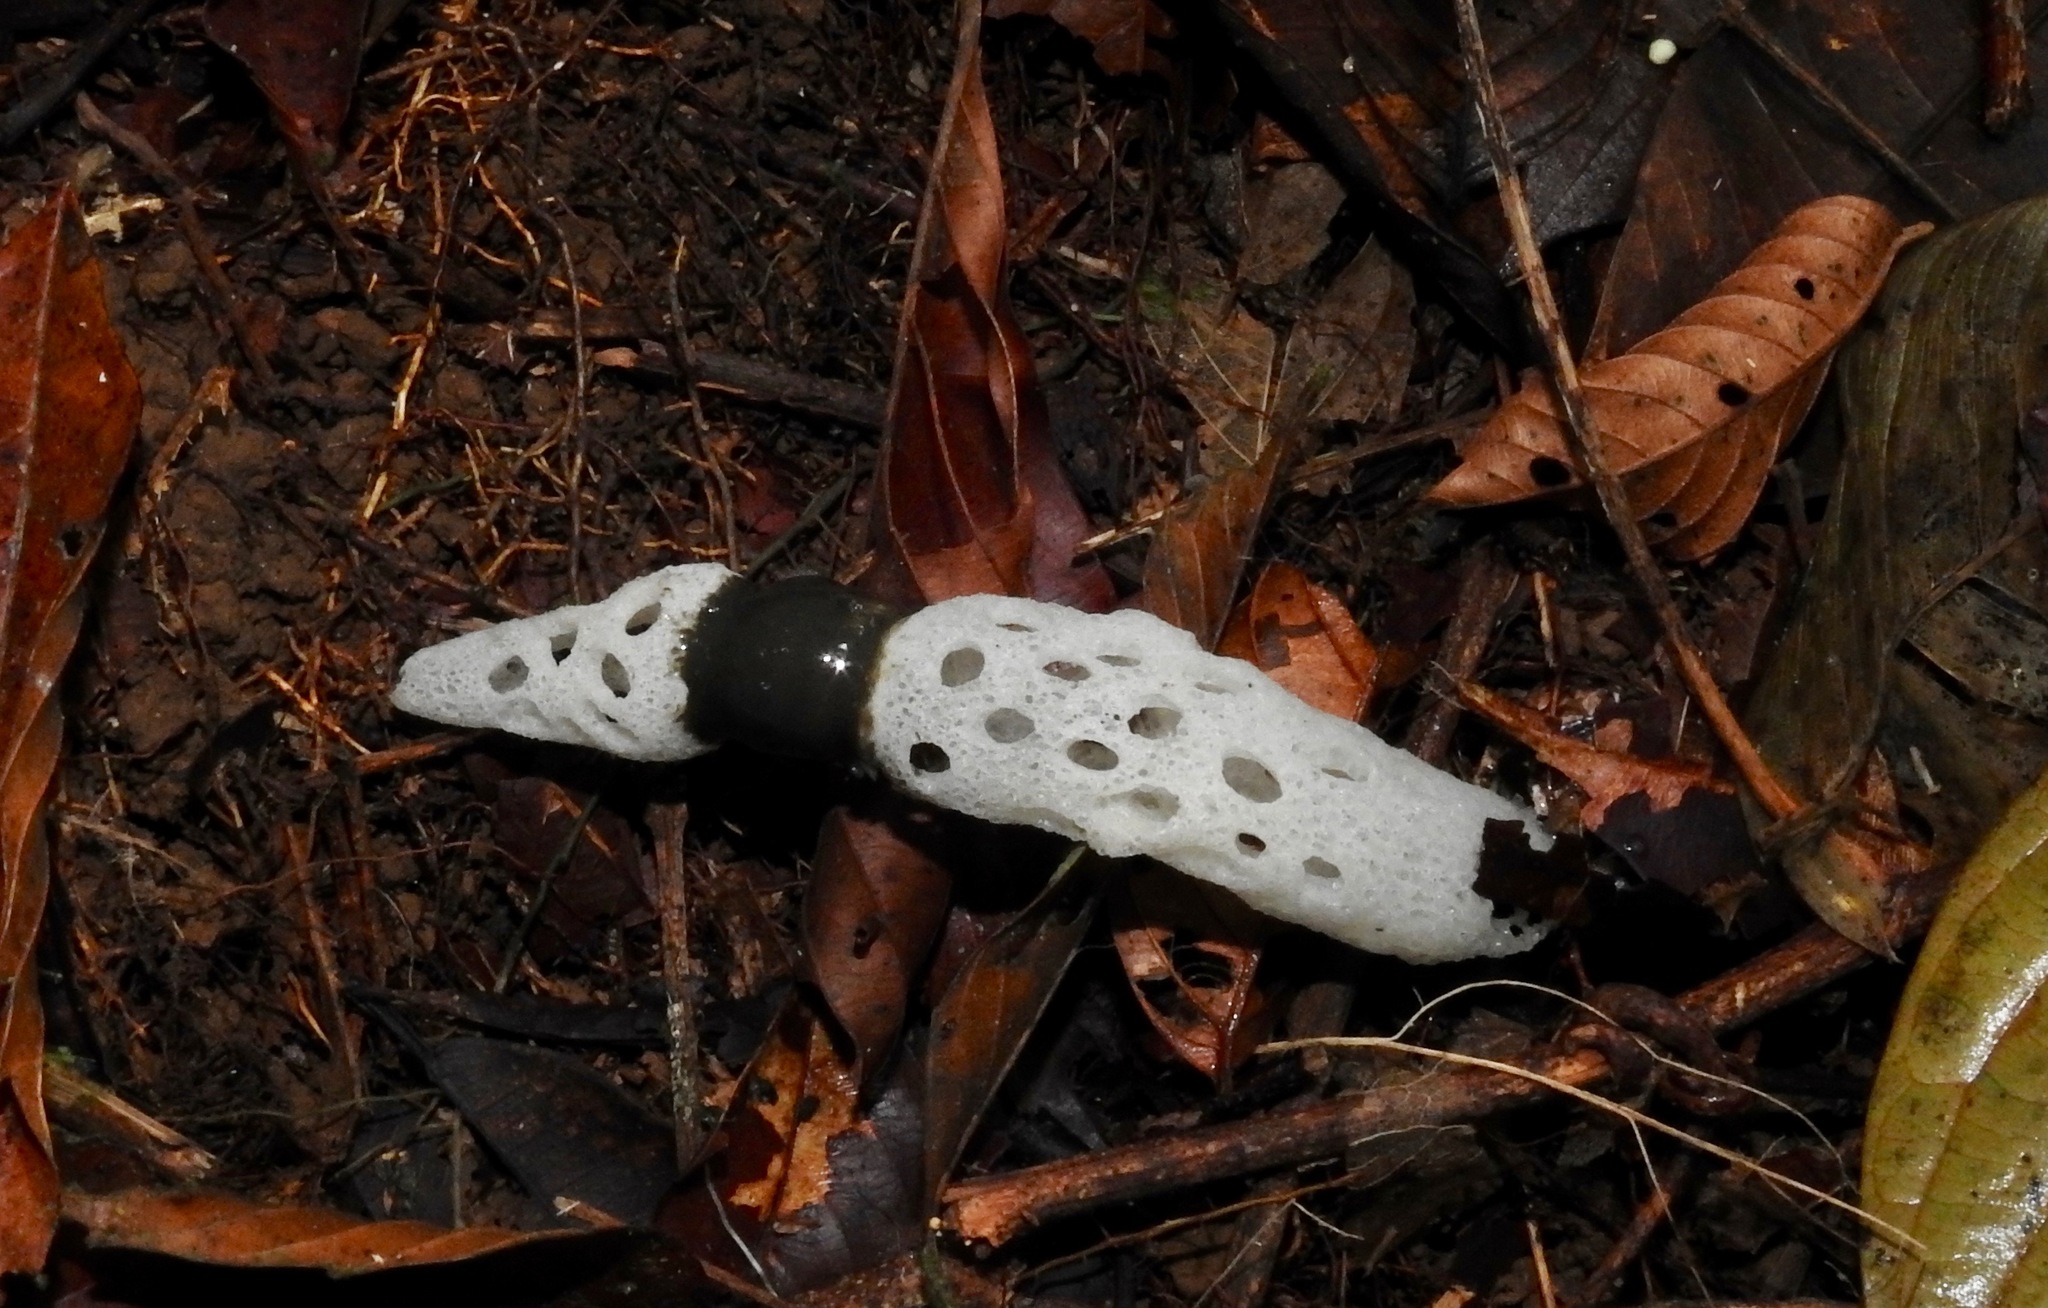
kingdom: Fungi
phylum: Basidiomycota
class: Agaricomycetes
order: Phallales
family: Phallaceae
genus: Staheliomyces
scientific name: Staheliomyces cinctus
